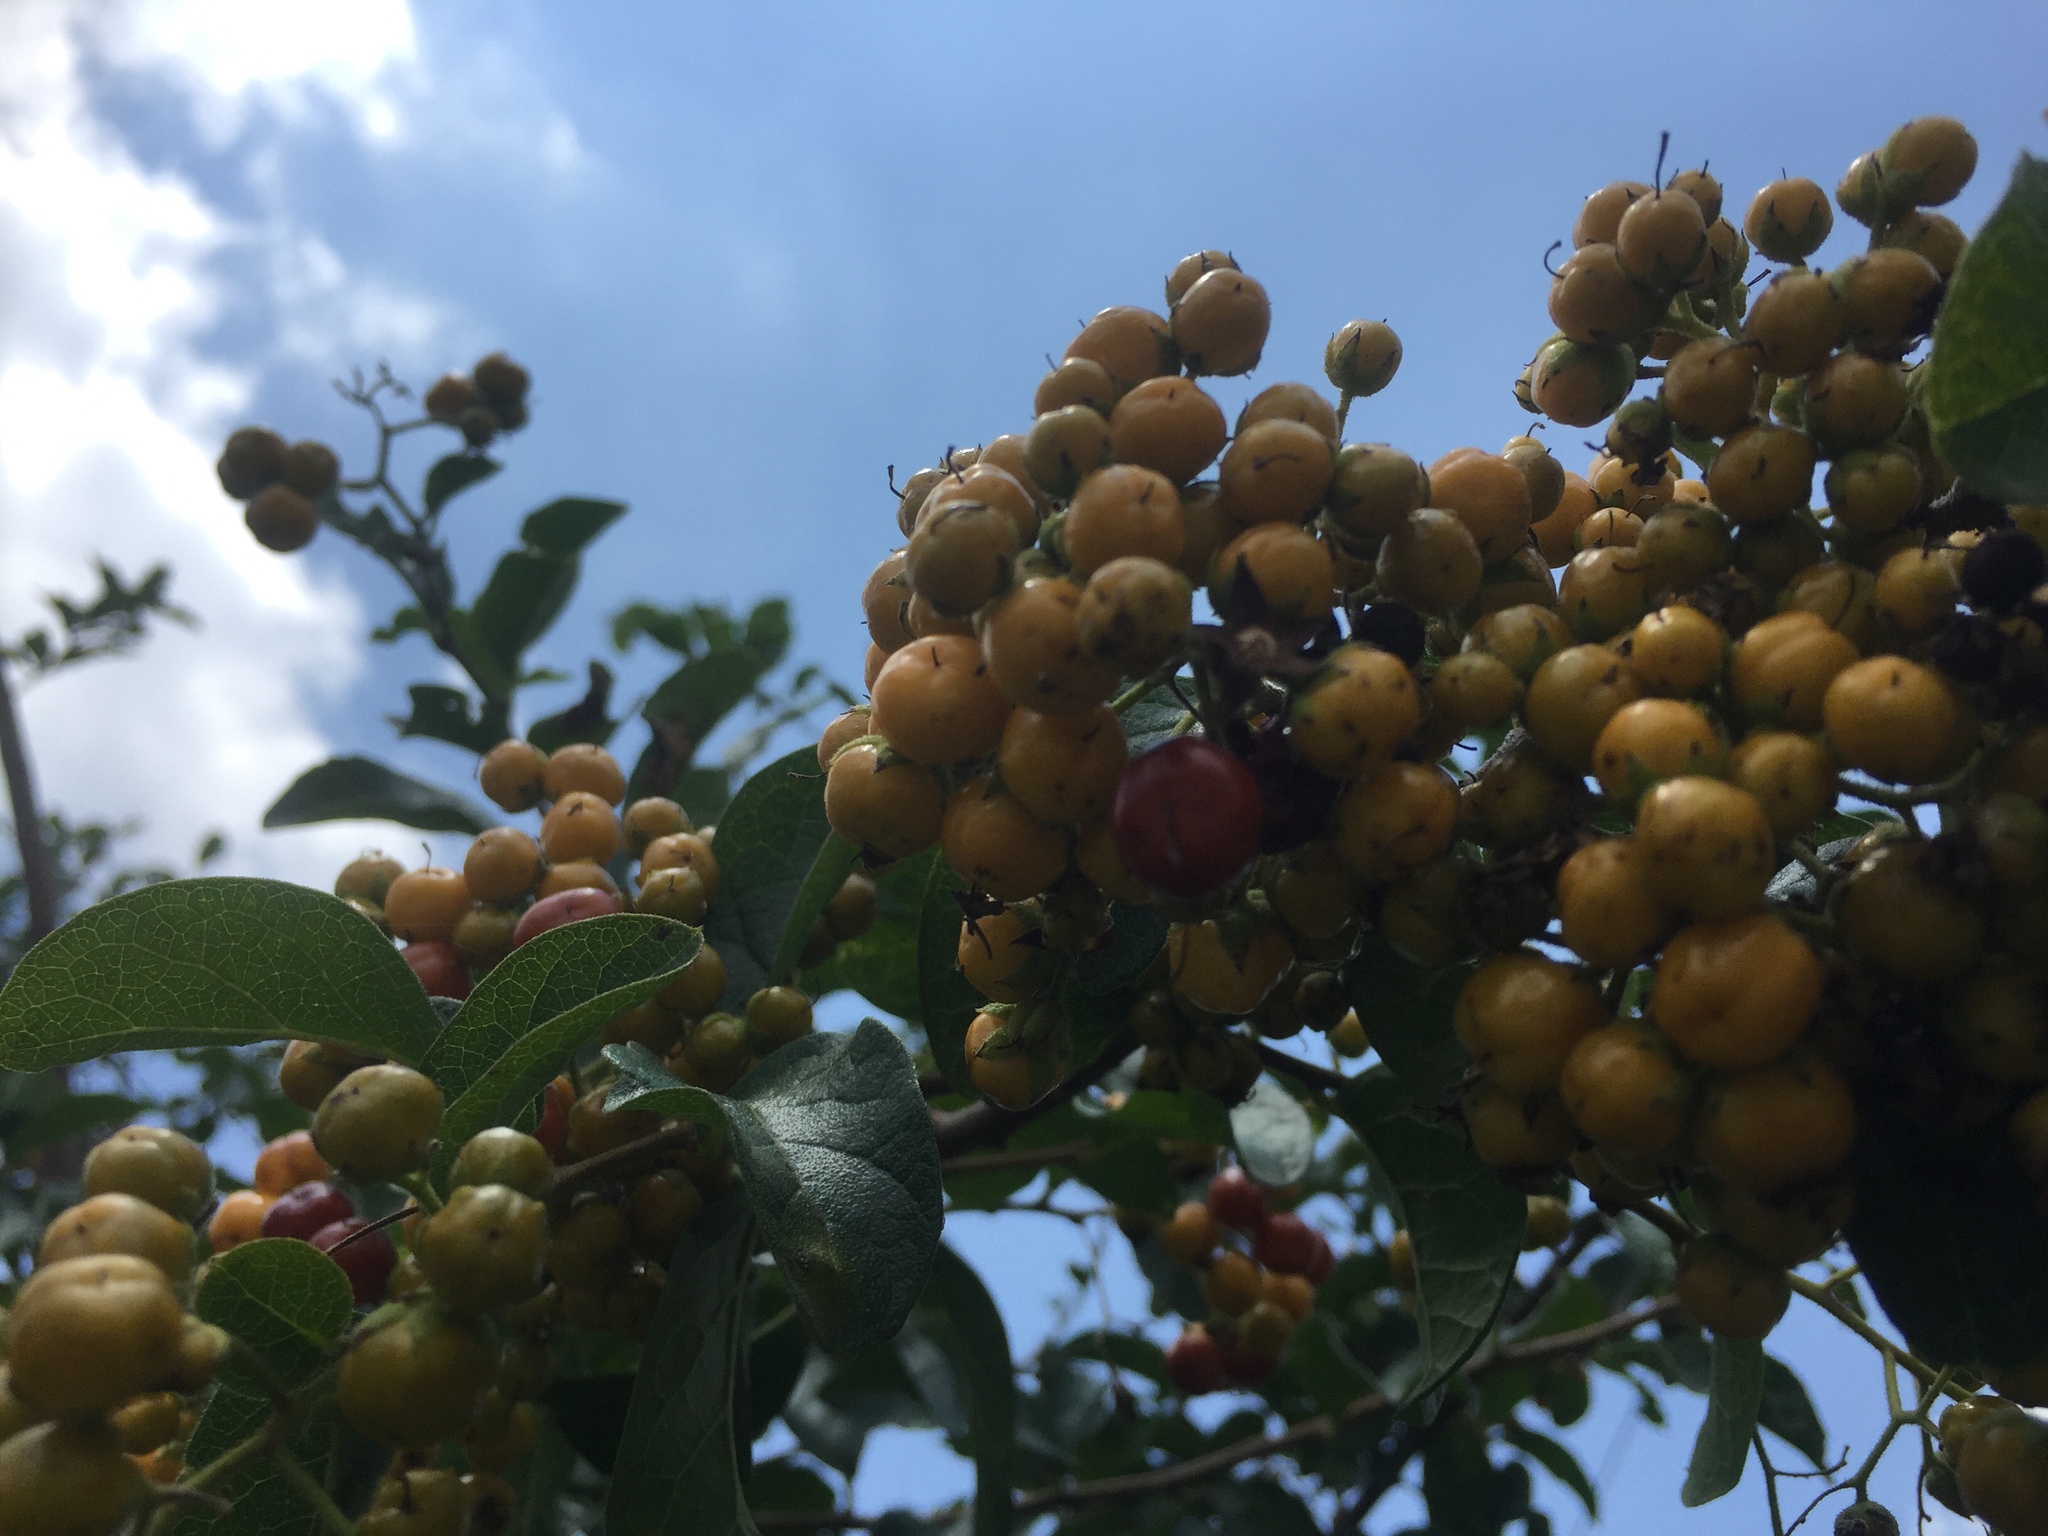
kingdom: Plantae
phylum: Tracheophyta
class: Magnoliopsida
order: Boraginales
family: Ehretiaceae
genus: Ehretia
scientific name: Ehretia anacua
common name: Sugarberry
